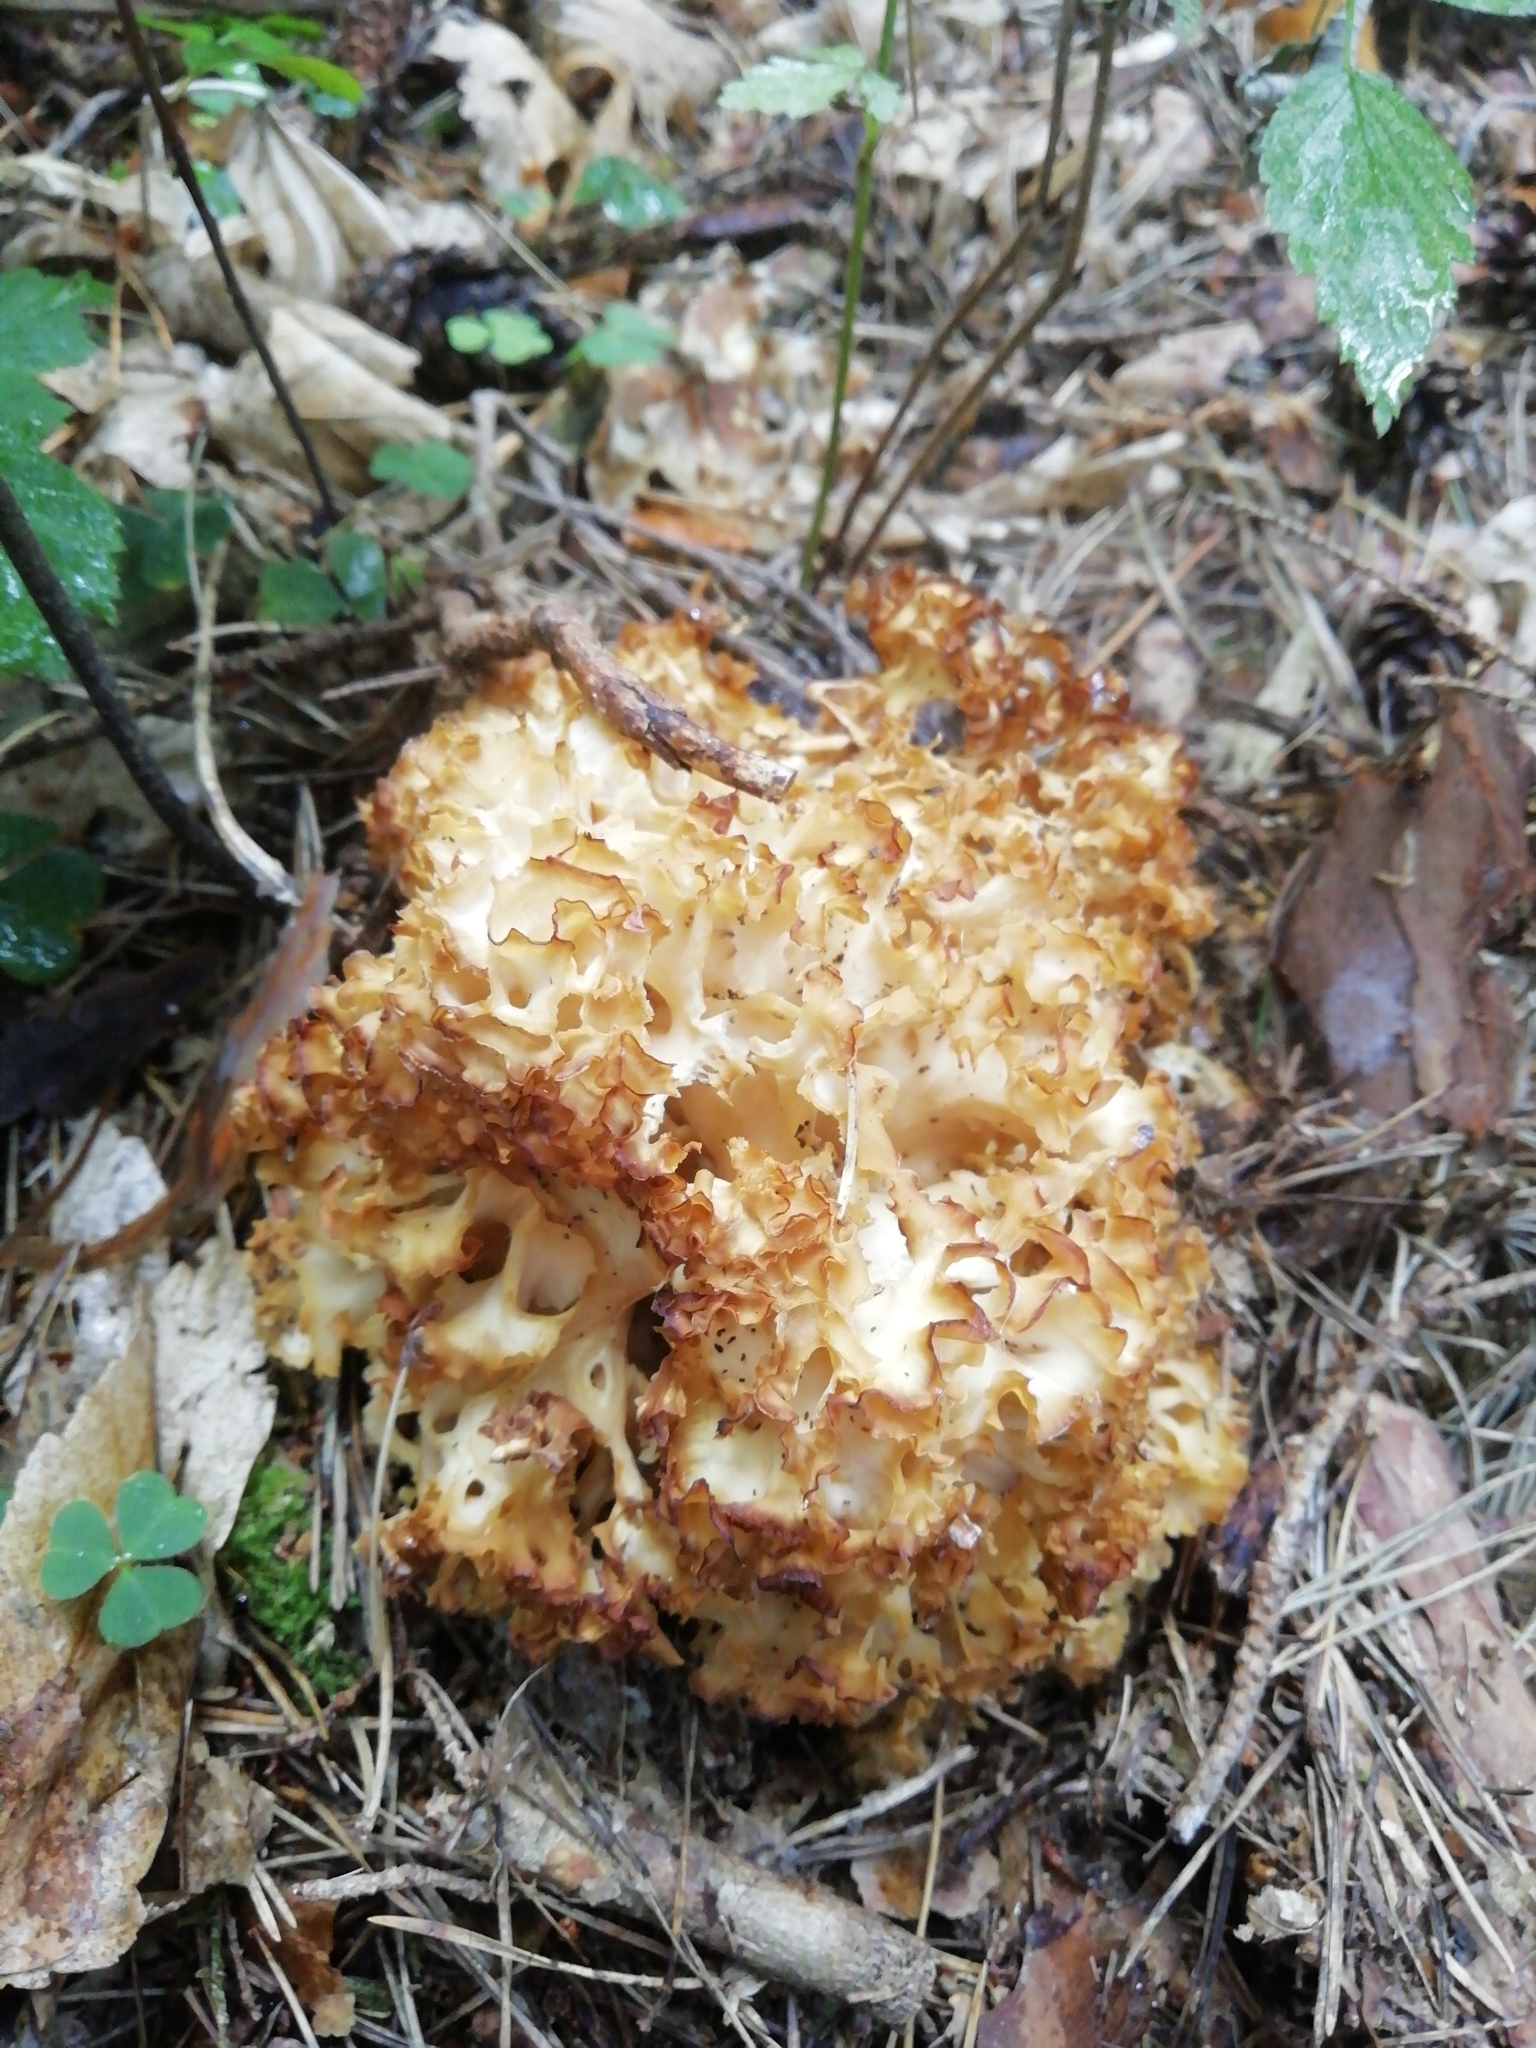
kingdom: Fungi
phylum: Basidiomycota
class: Agaricomycetes
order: Polyporales
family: Sparassidaceae
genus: Sparassis
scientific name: Sparassis crispa
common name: Brain fungus
